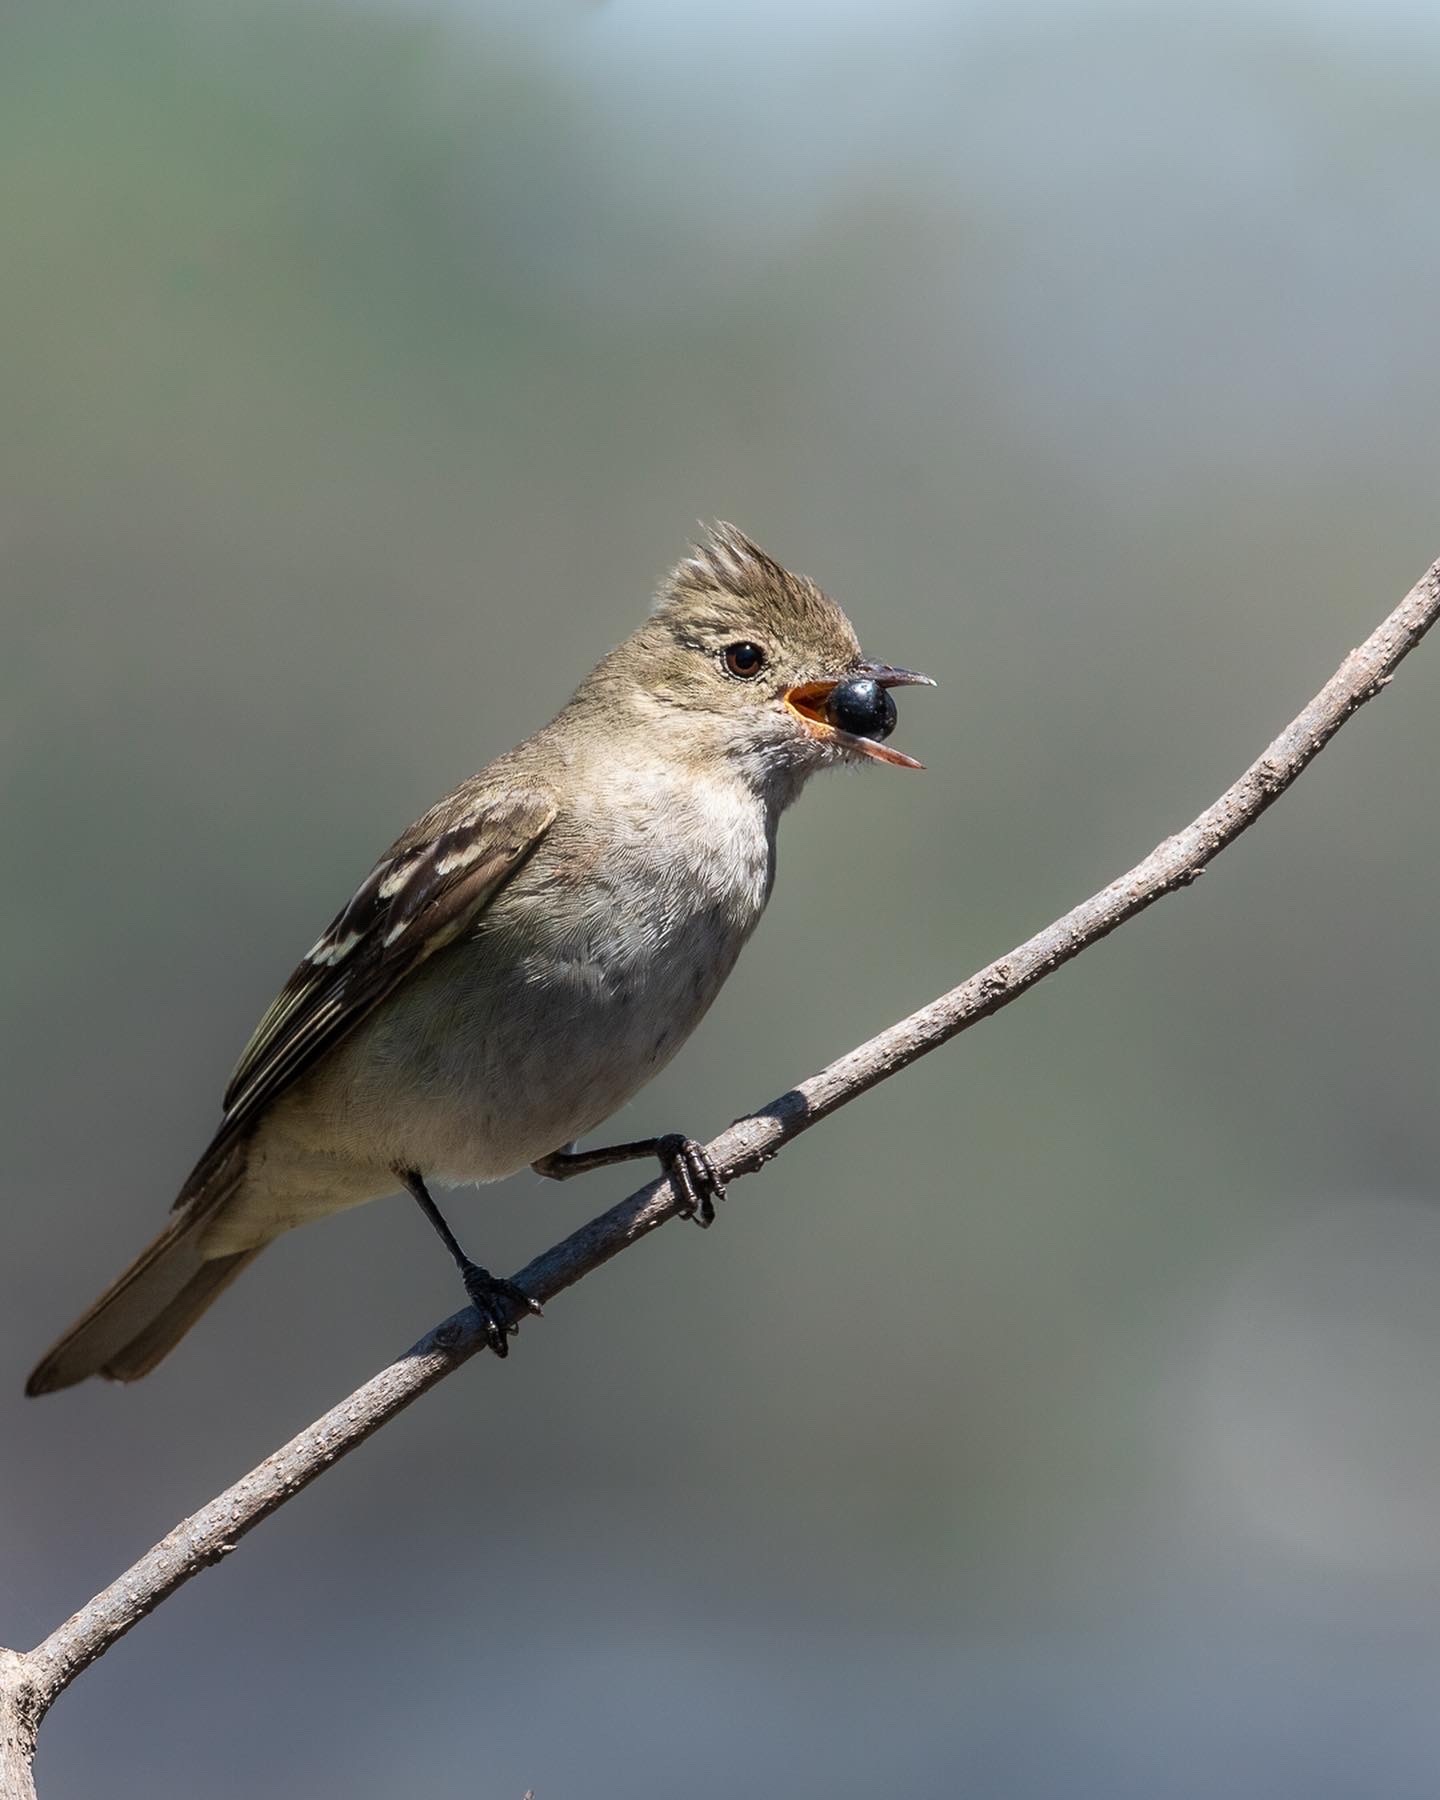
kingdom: Animalia
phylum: Chordata
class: Aves
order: Passeriformes
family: Tyrannidae
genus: Elaenia
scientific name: Elaenia albiceps
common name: White-crested elaenia
